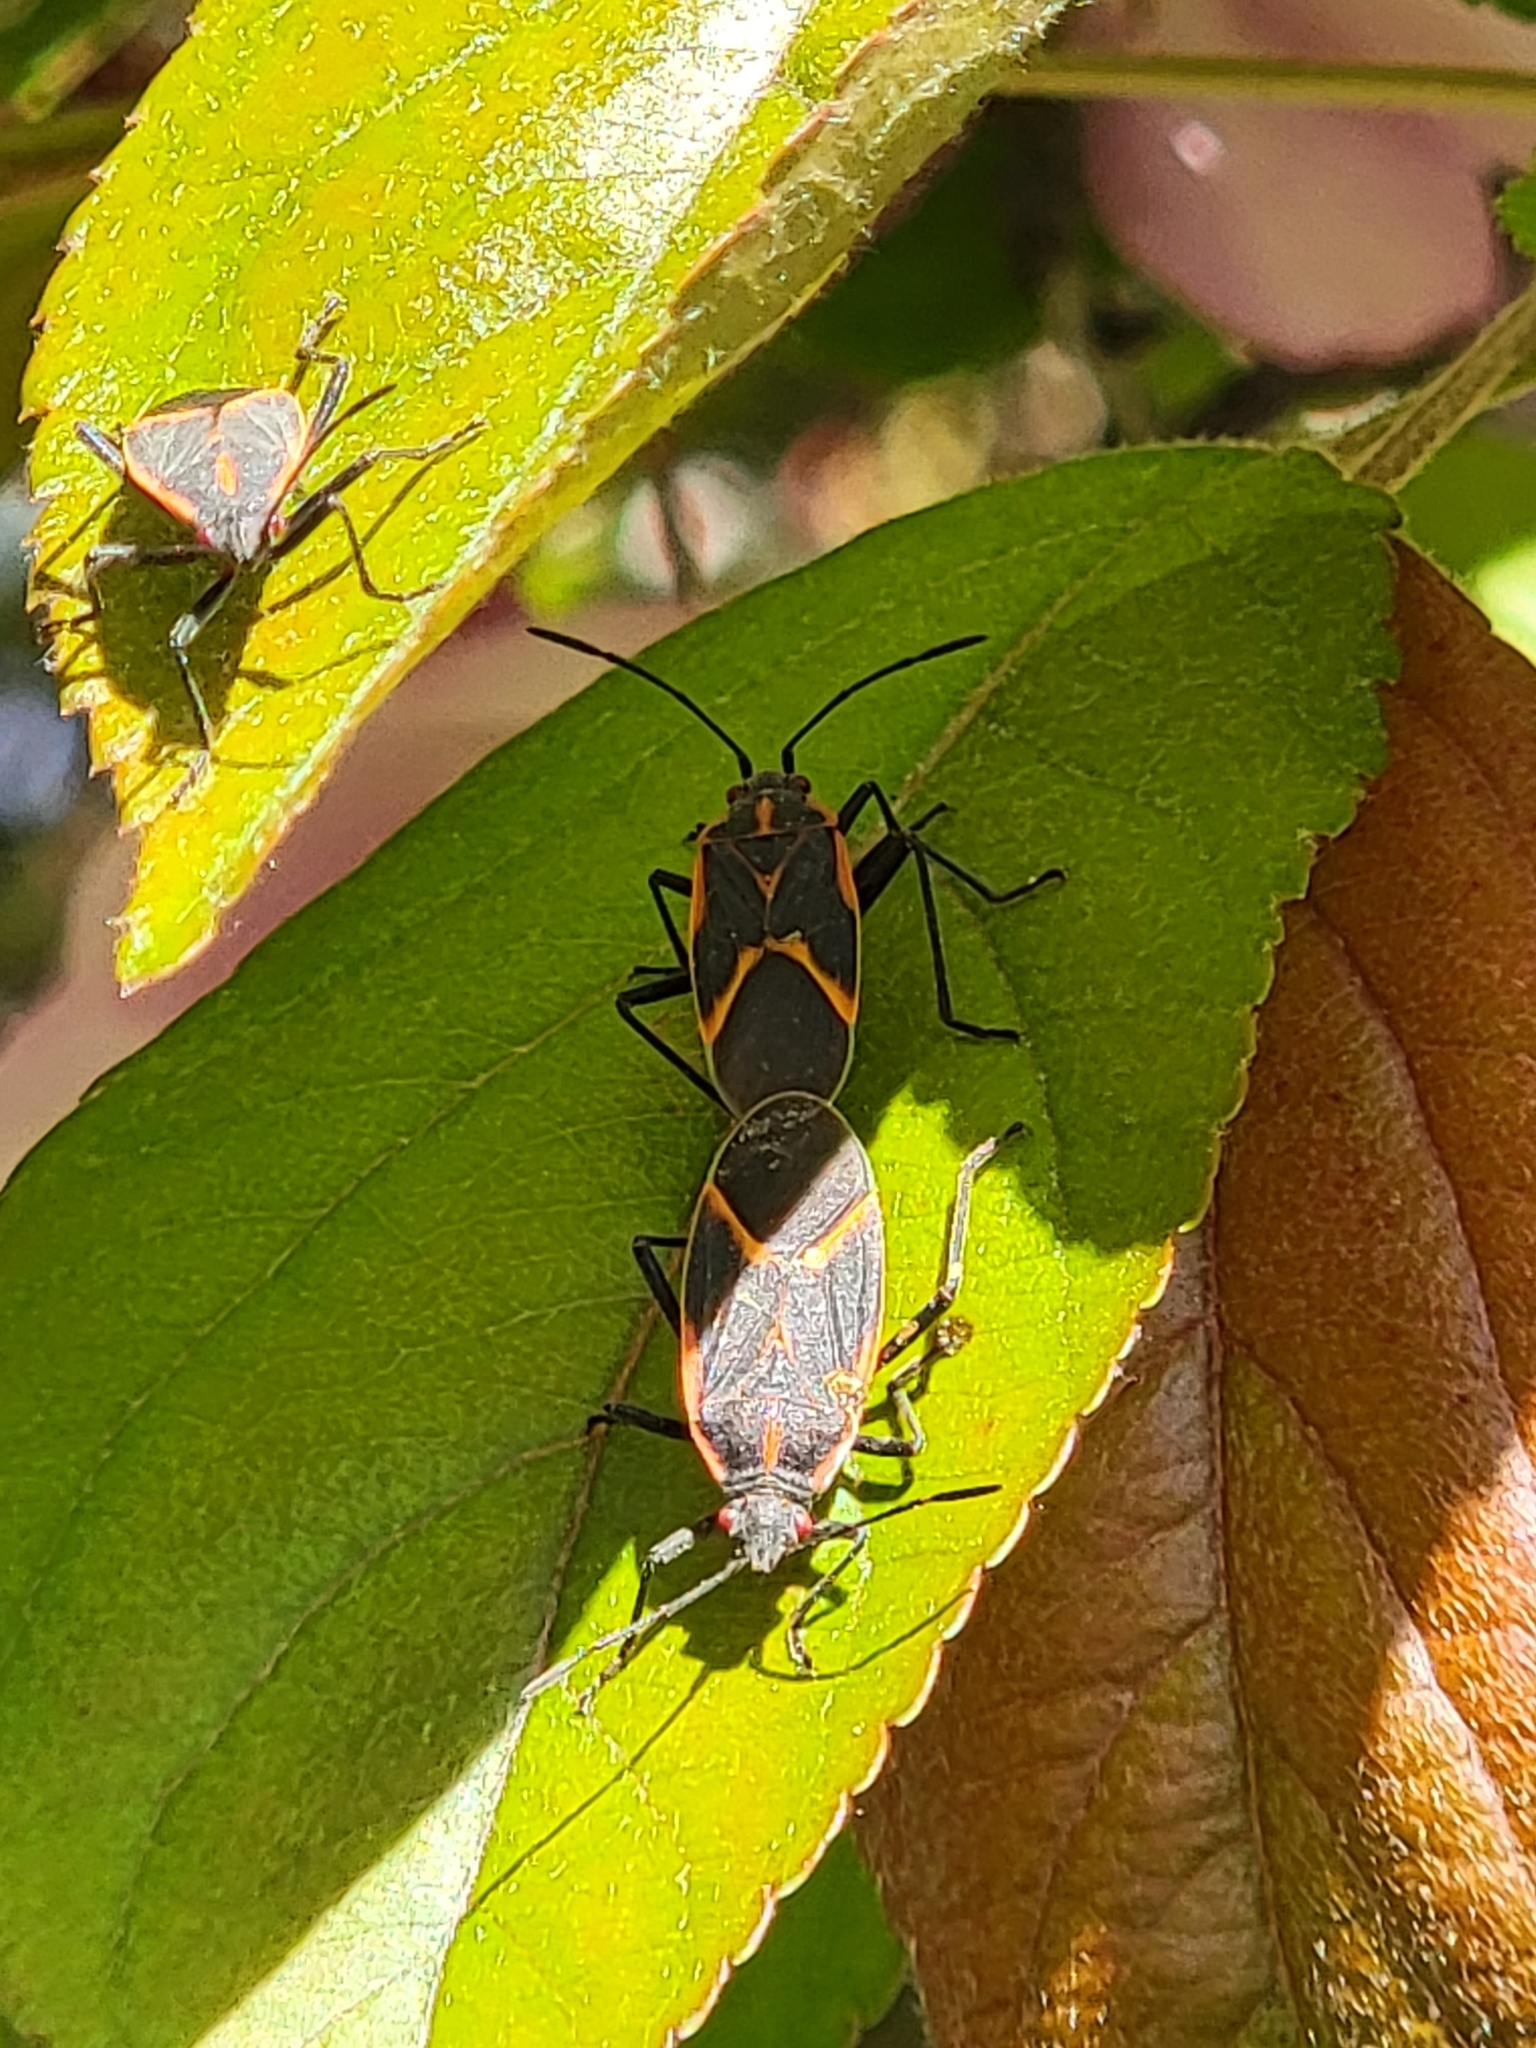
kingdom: Animalia
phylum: Arthropoda
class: Insecta
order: Hemiptera
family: Rhopalidae
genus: Boisea
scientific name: Boisea trivittata
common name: Boxelder bug
